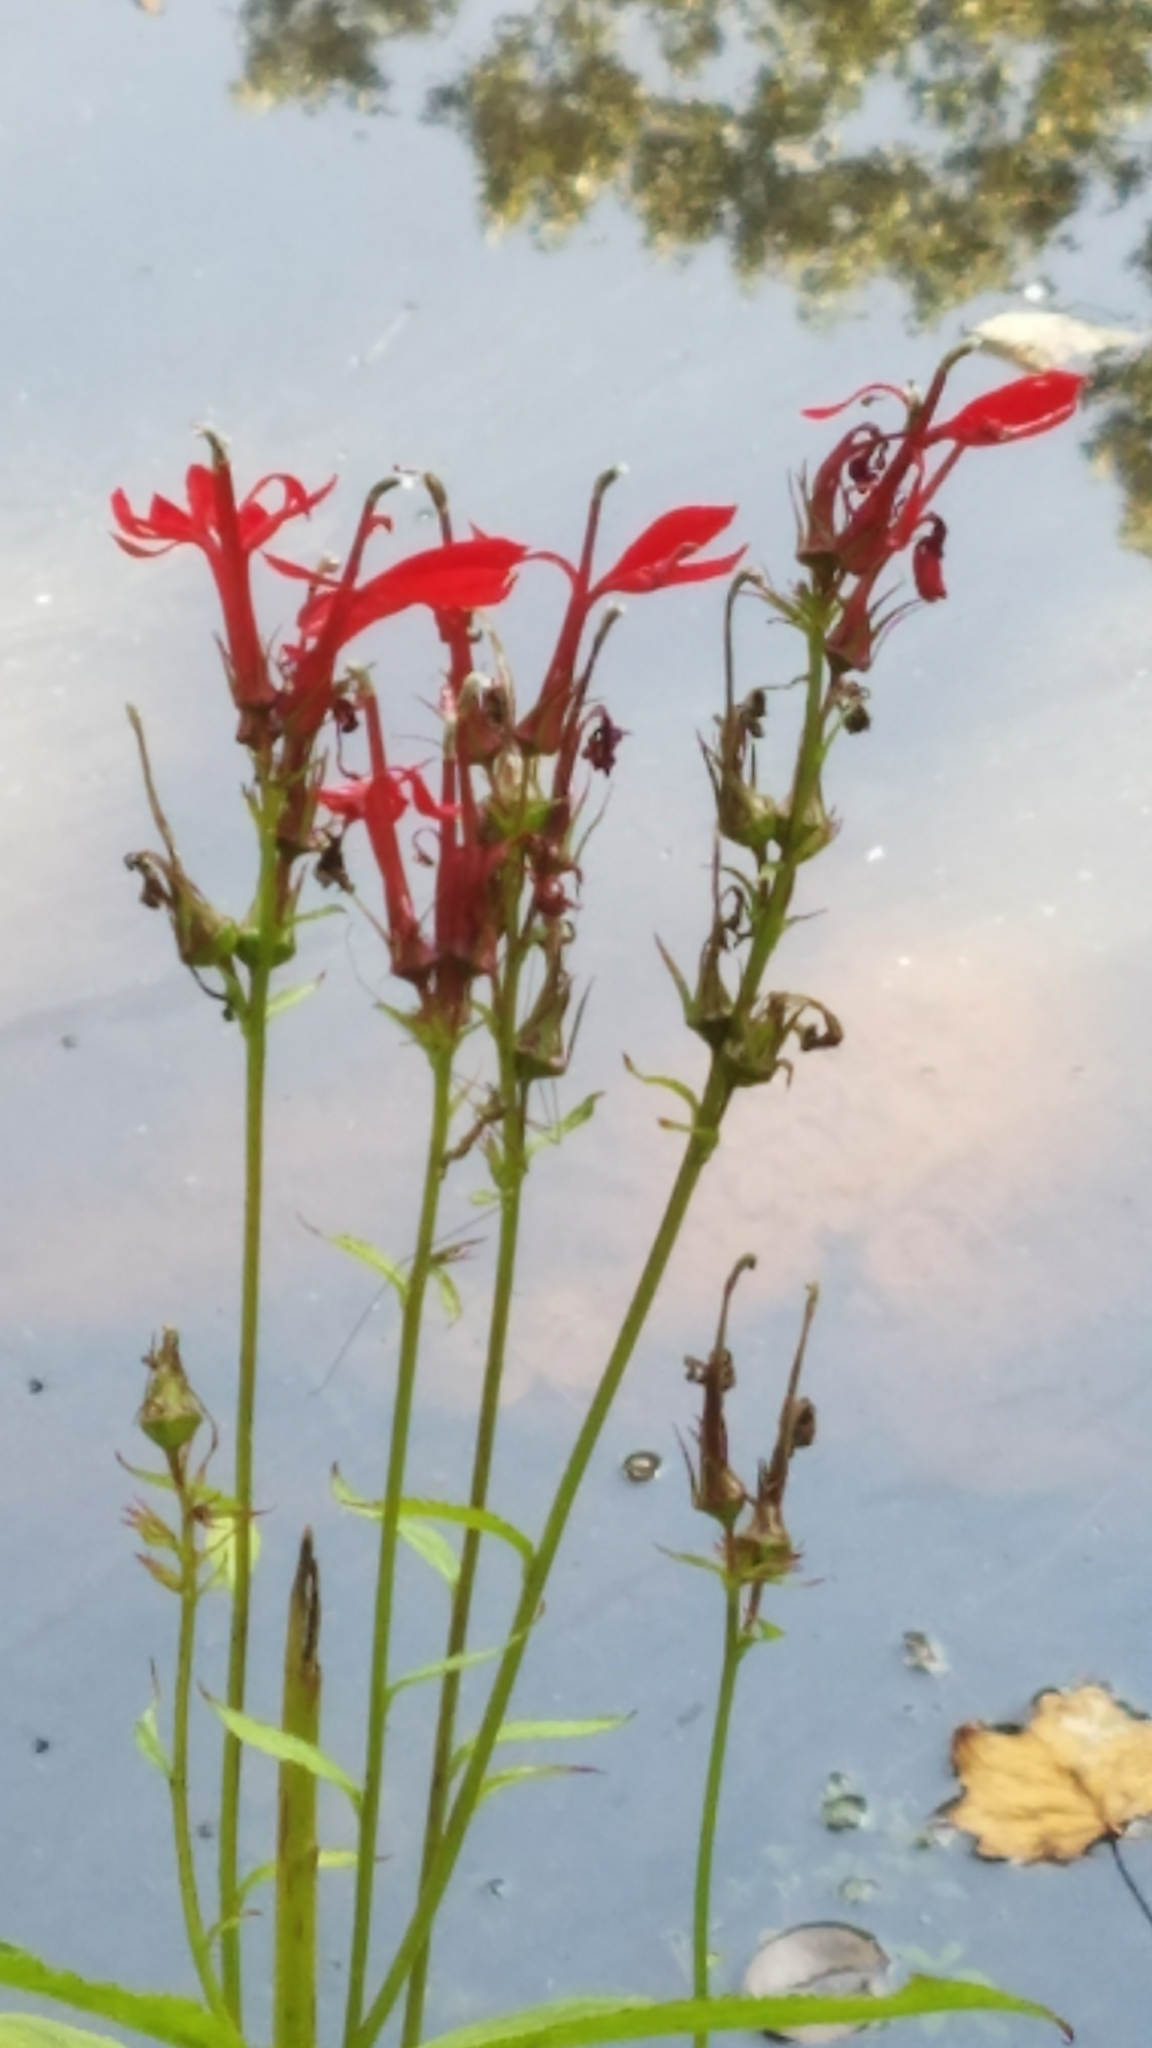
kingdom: Plantae
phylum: Tracheophyta
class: Magnoliopsida
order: Asterales
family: Campanulaceae
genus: Lobelia
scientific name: Lobelia cardinalis
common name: Cardinal flower
